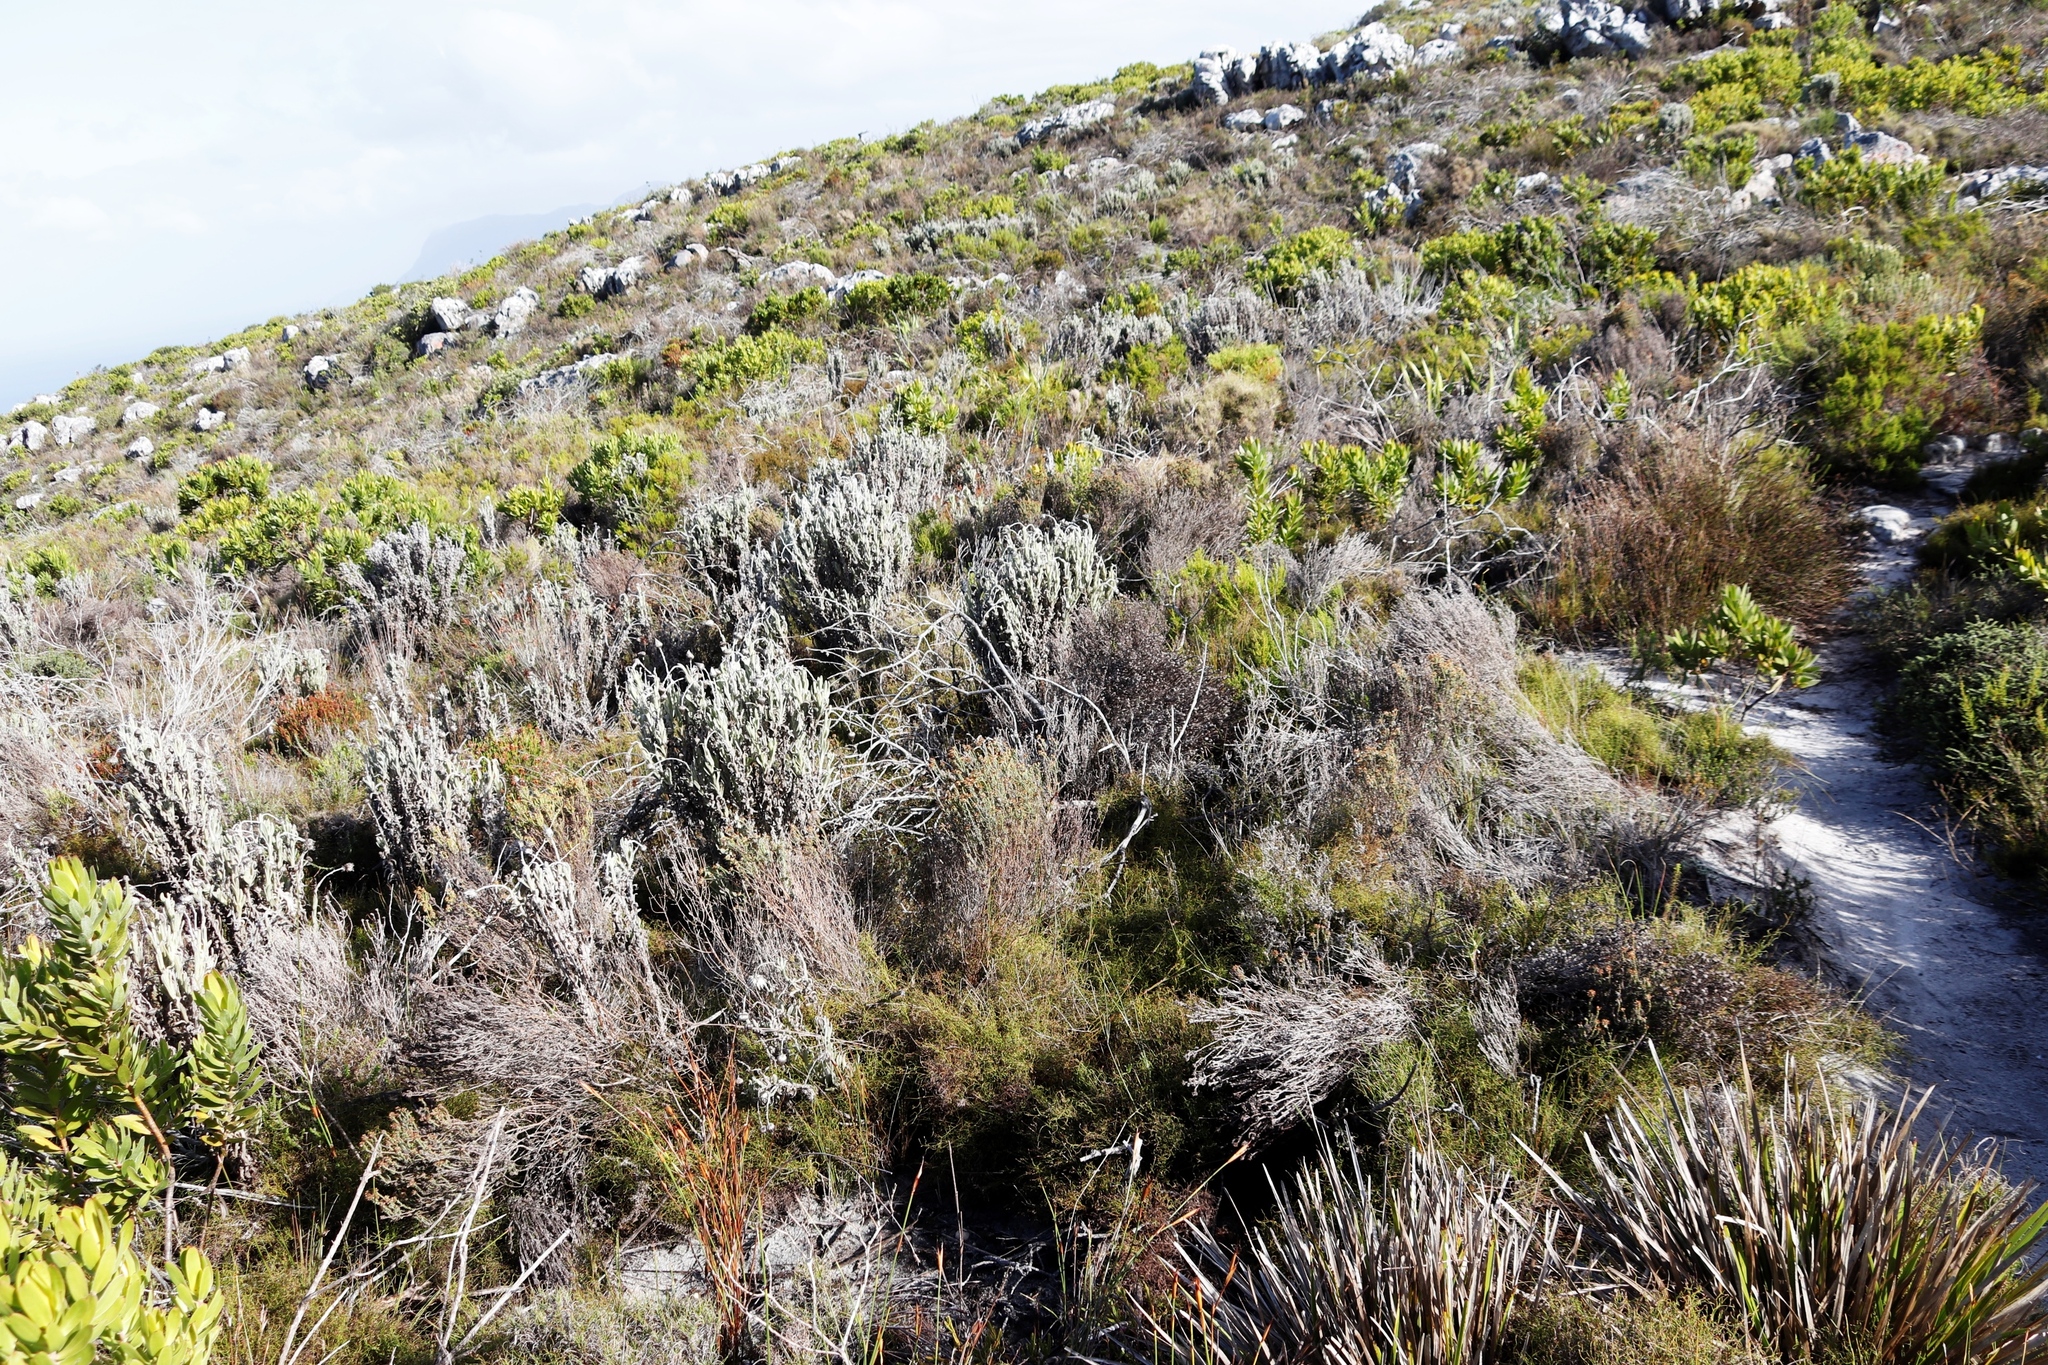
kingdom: Plantae
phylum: Tracheophyta
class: Magnoliopsida
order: Asterales
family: Asteraceae
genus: Syncarpha
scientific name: Syncarpha vestita
